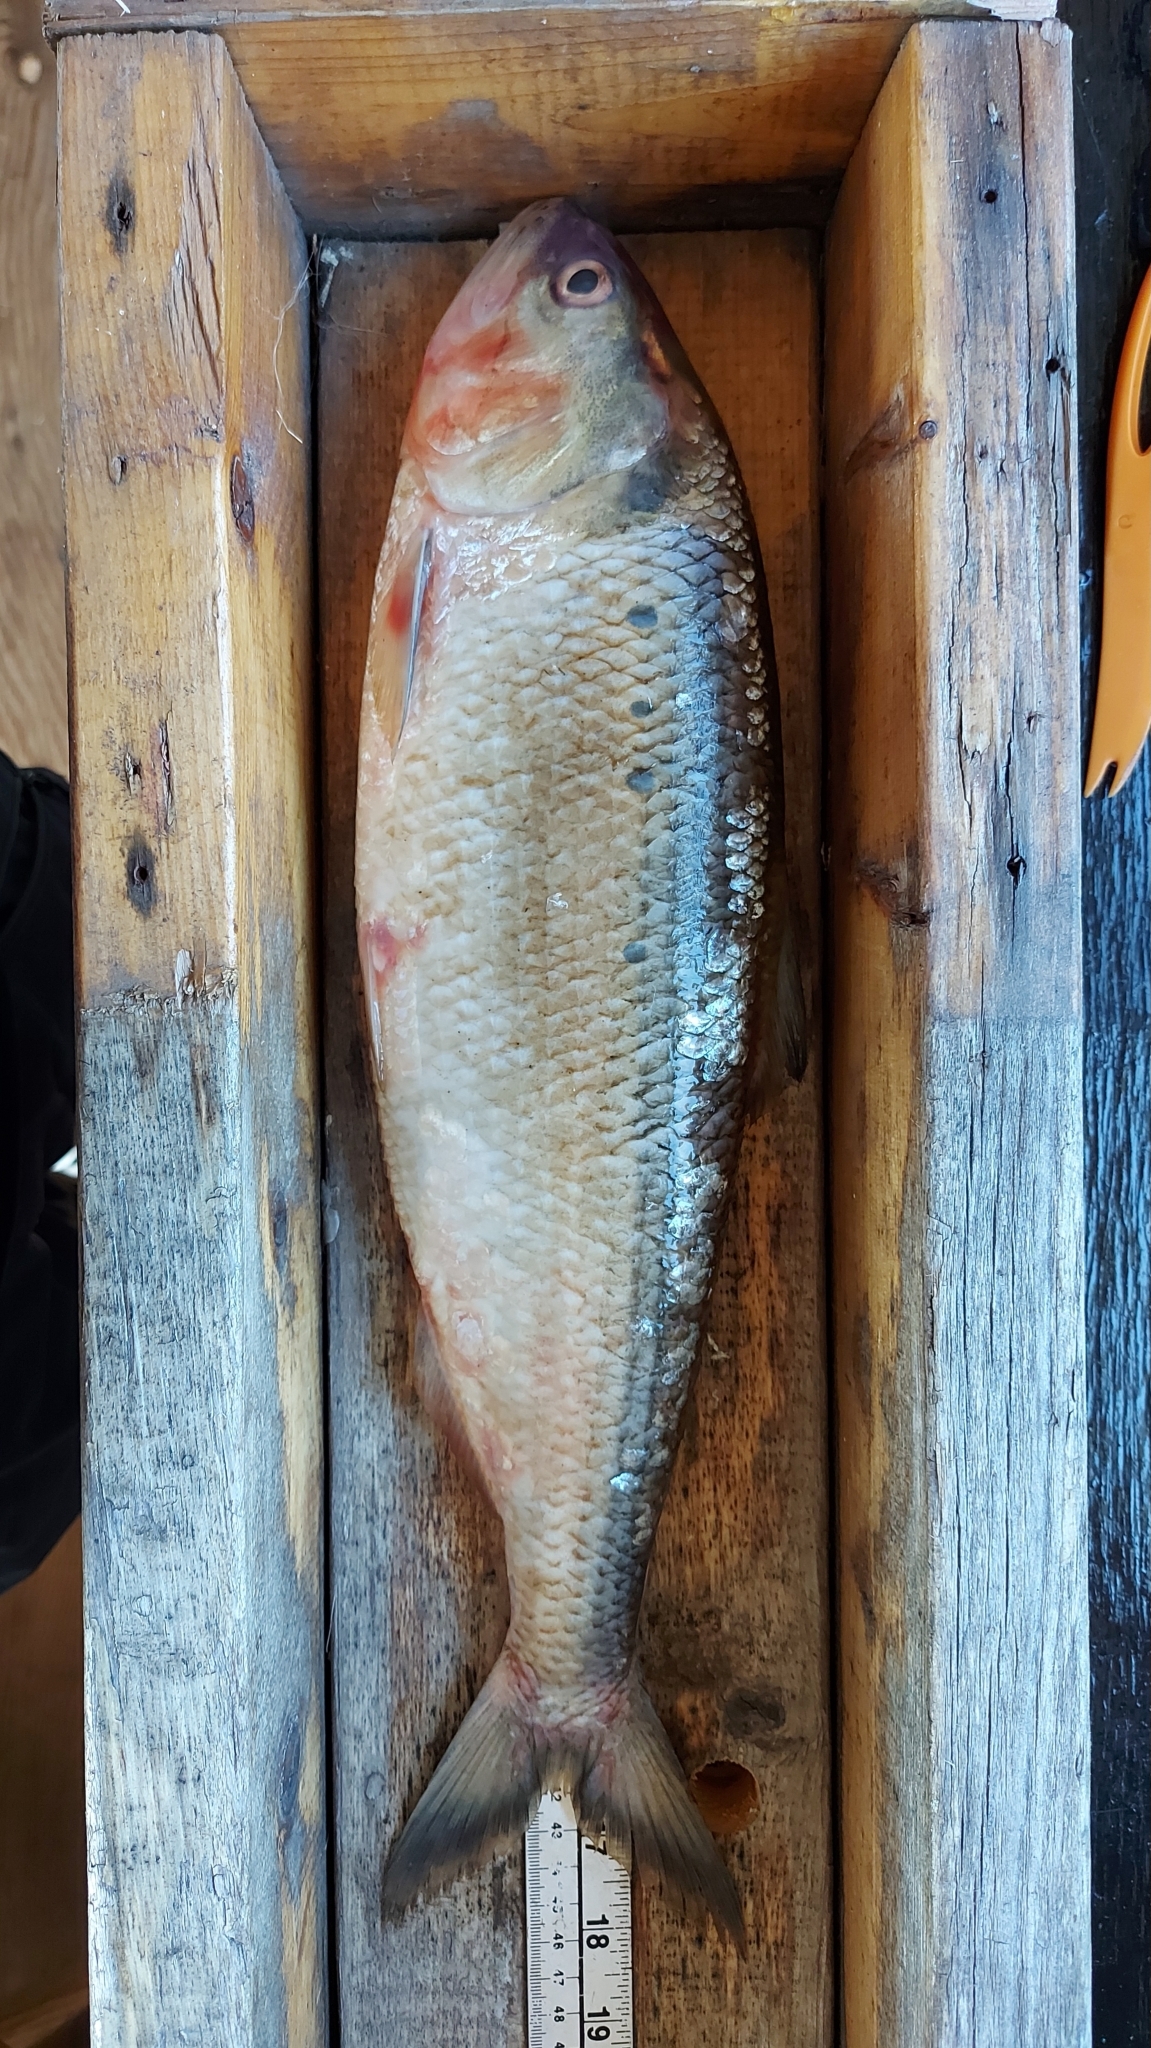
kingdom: Animalia
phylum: Chordata
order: Clupeiformes
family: Clupeidae
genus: Alosa
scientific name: Alosa sapidissima
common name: American shad
